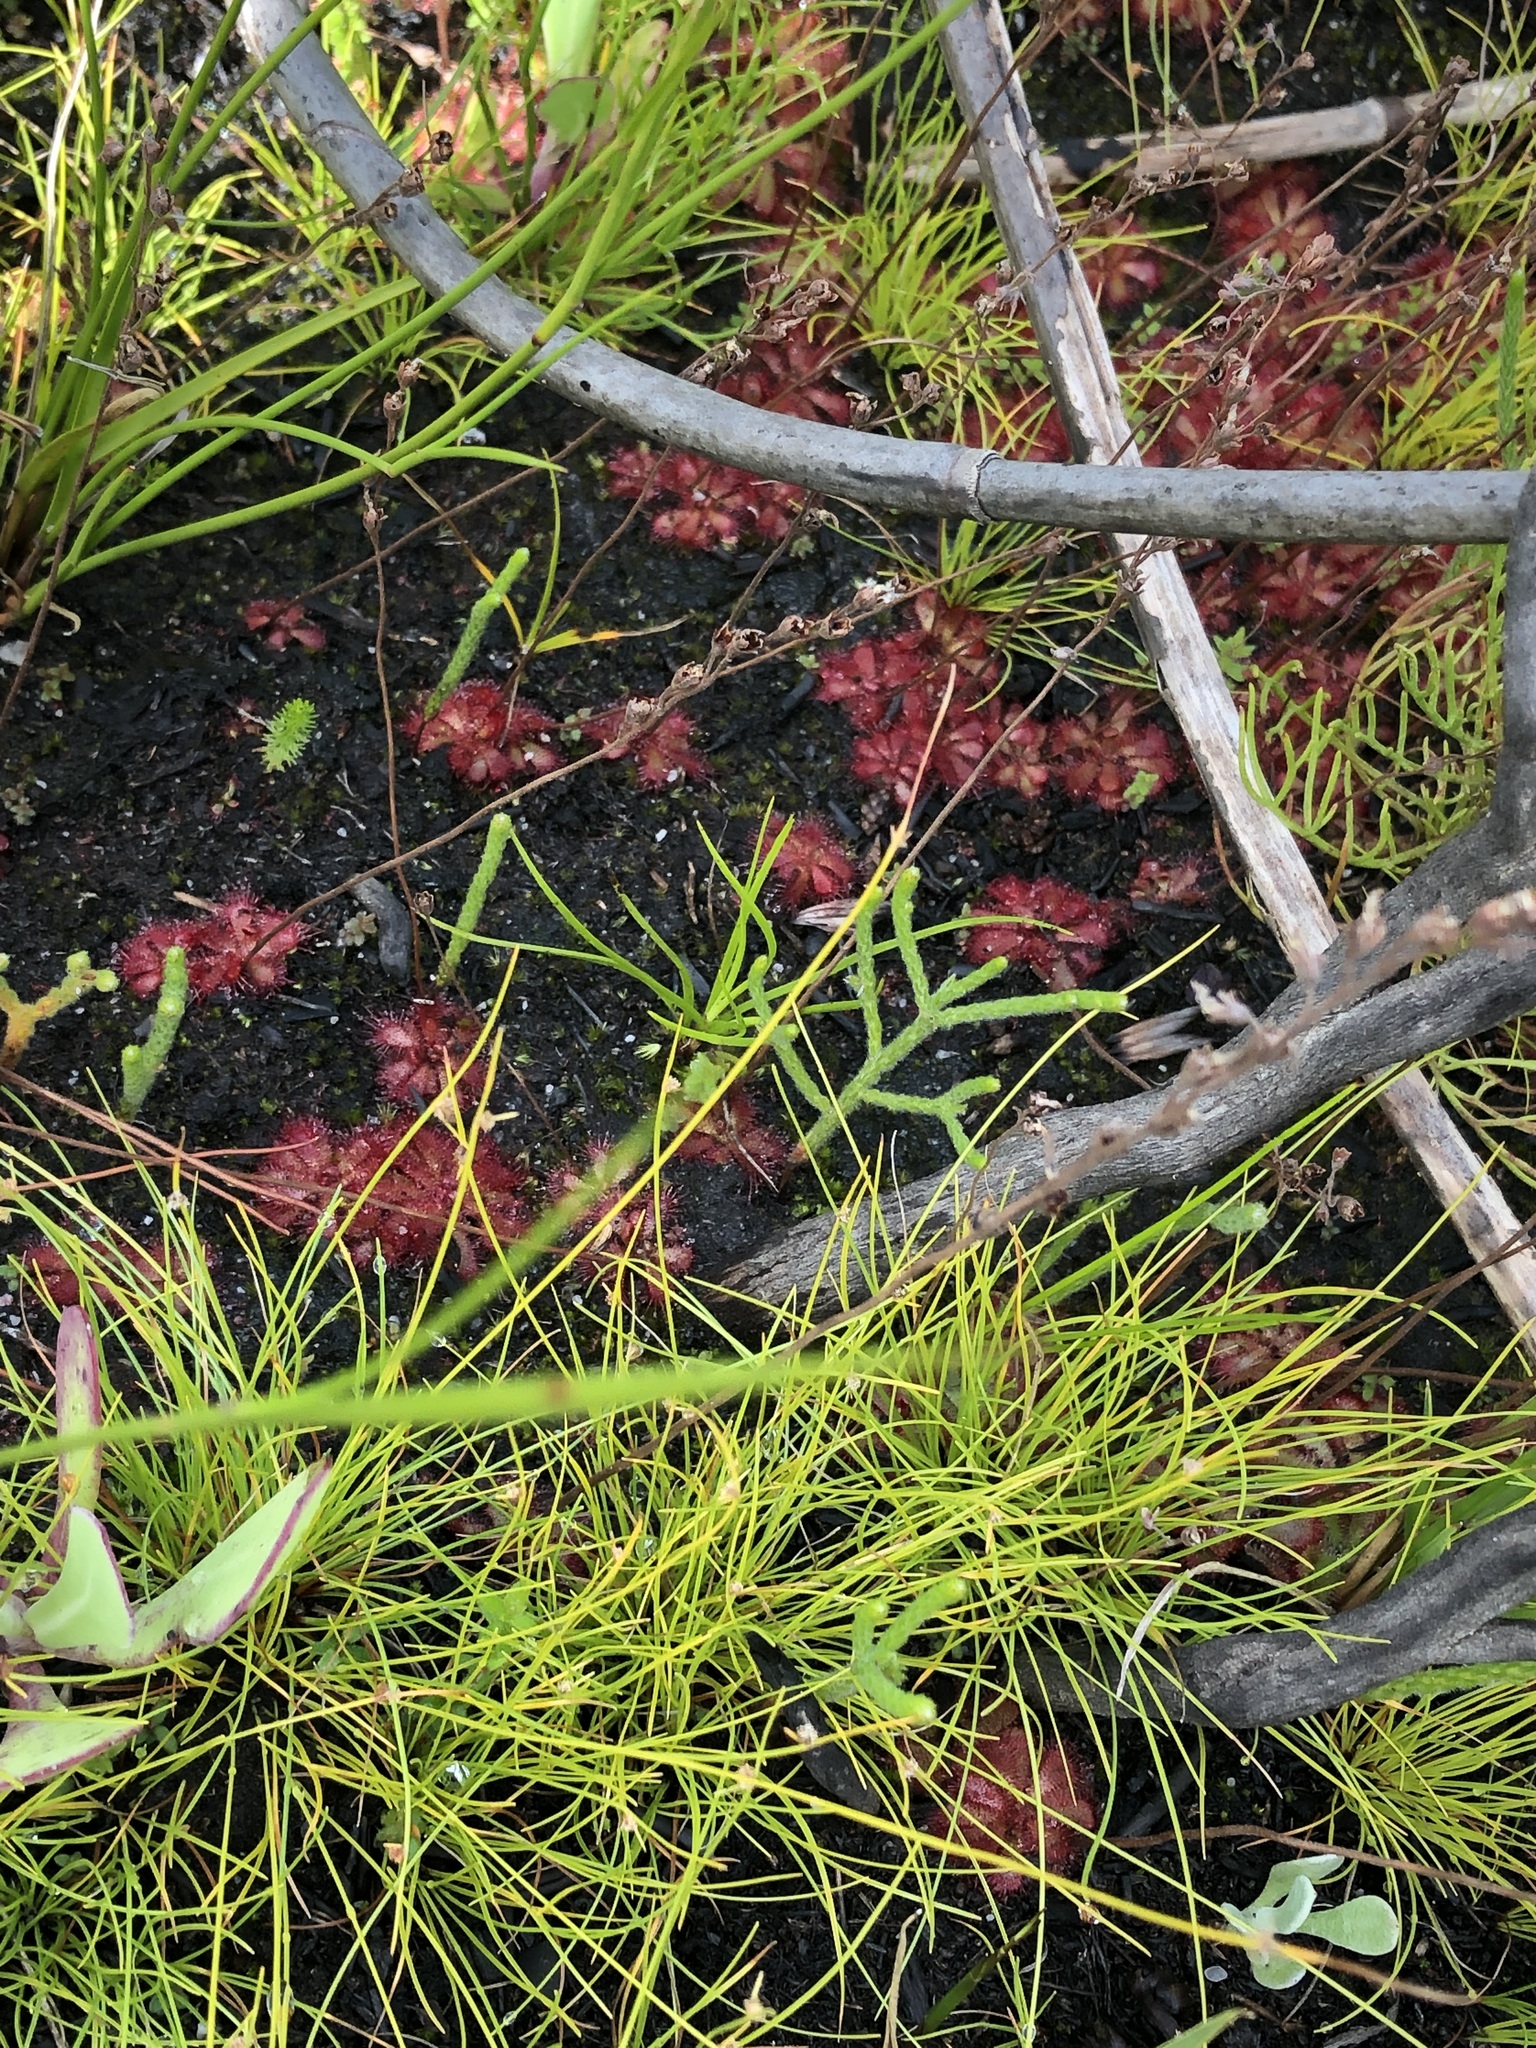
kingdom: Plantae
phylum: Tracheophyta
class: Magnoliopsida
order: Caryophyllales
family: Droseraceae
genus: Drosera
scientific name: Drosera aliciae
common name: Alice sundew
